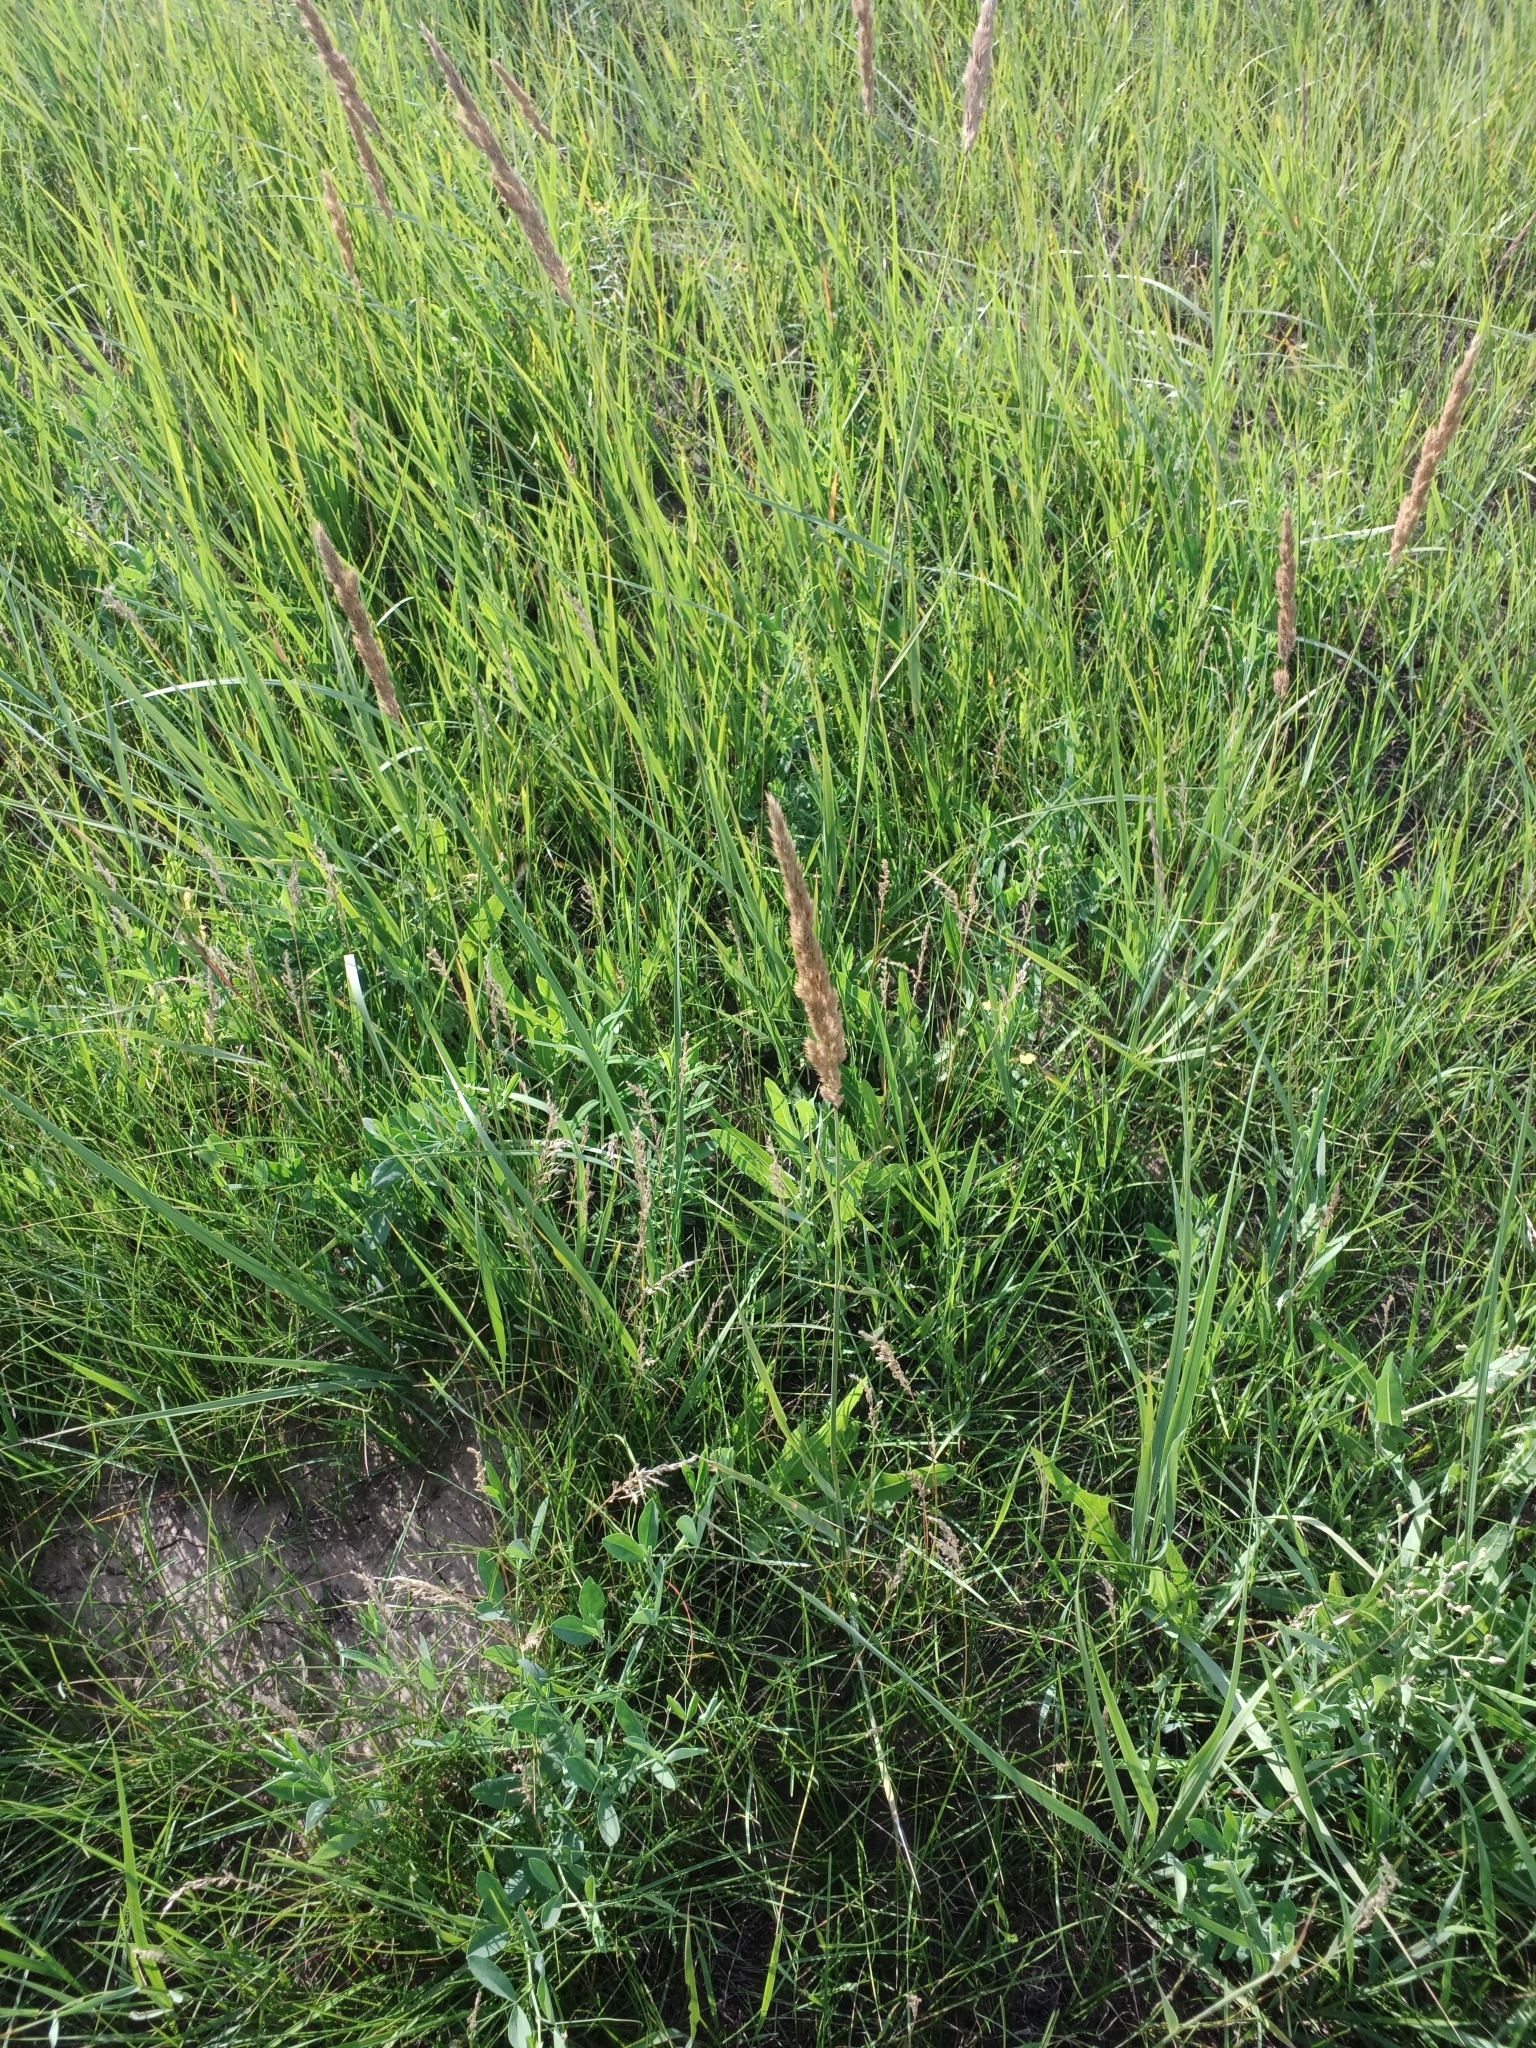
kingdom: Plantae
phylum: Tracheophyta
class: Liliopsida
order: Poales
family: Poaceae
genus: Calamagrostis
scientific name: Calamagrostis epigejos
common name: Wood small-reed
